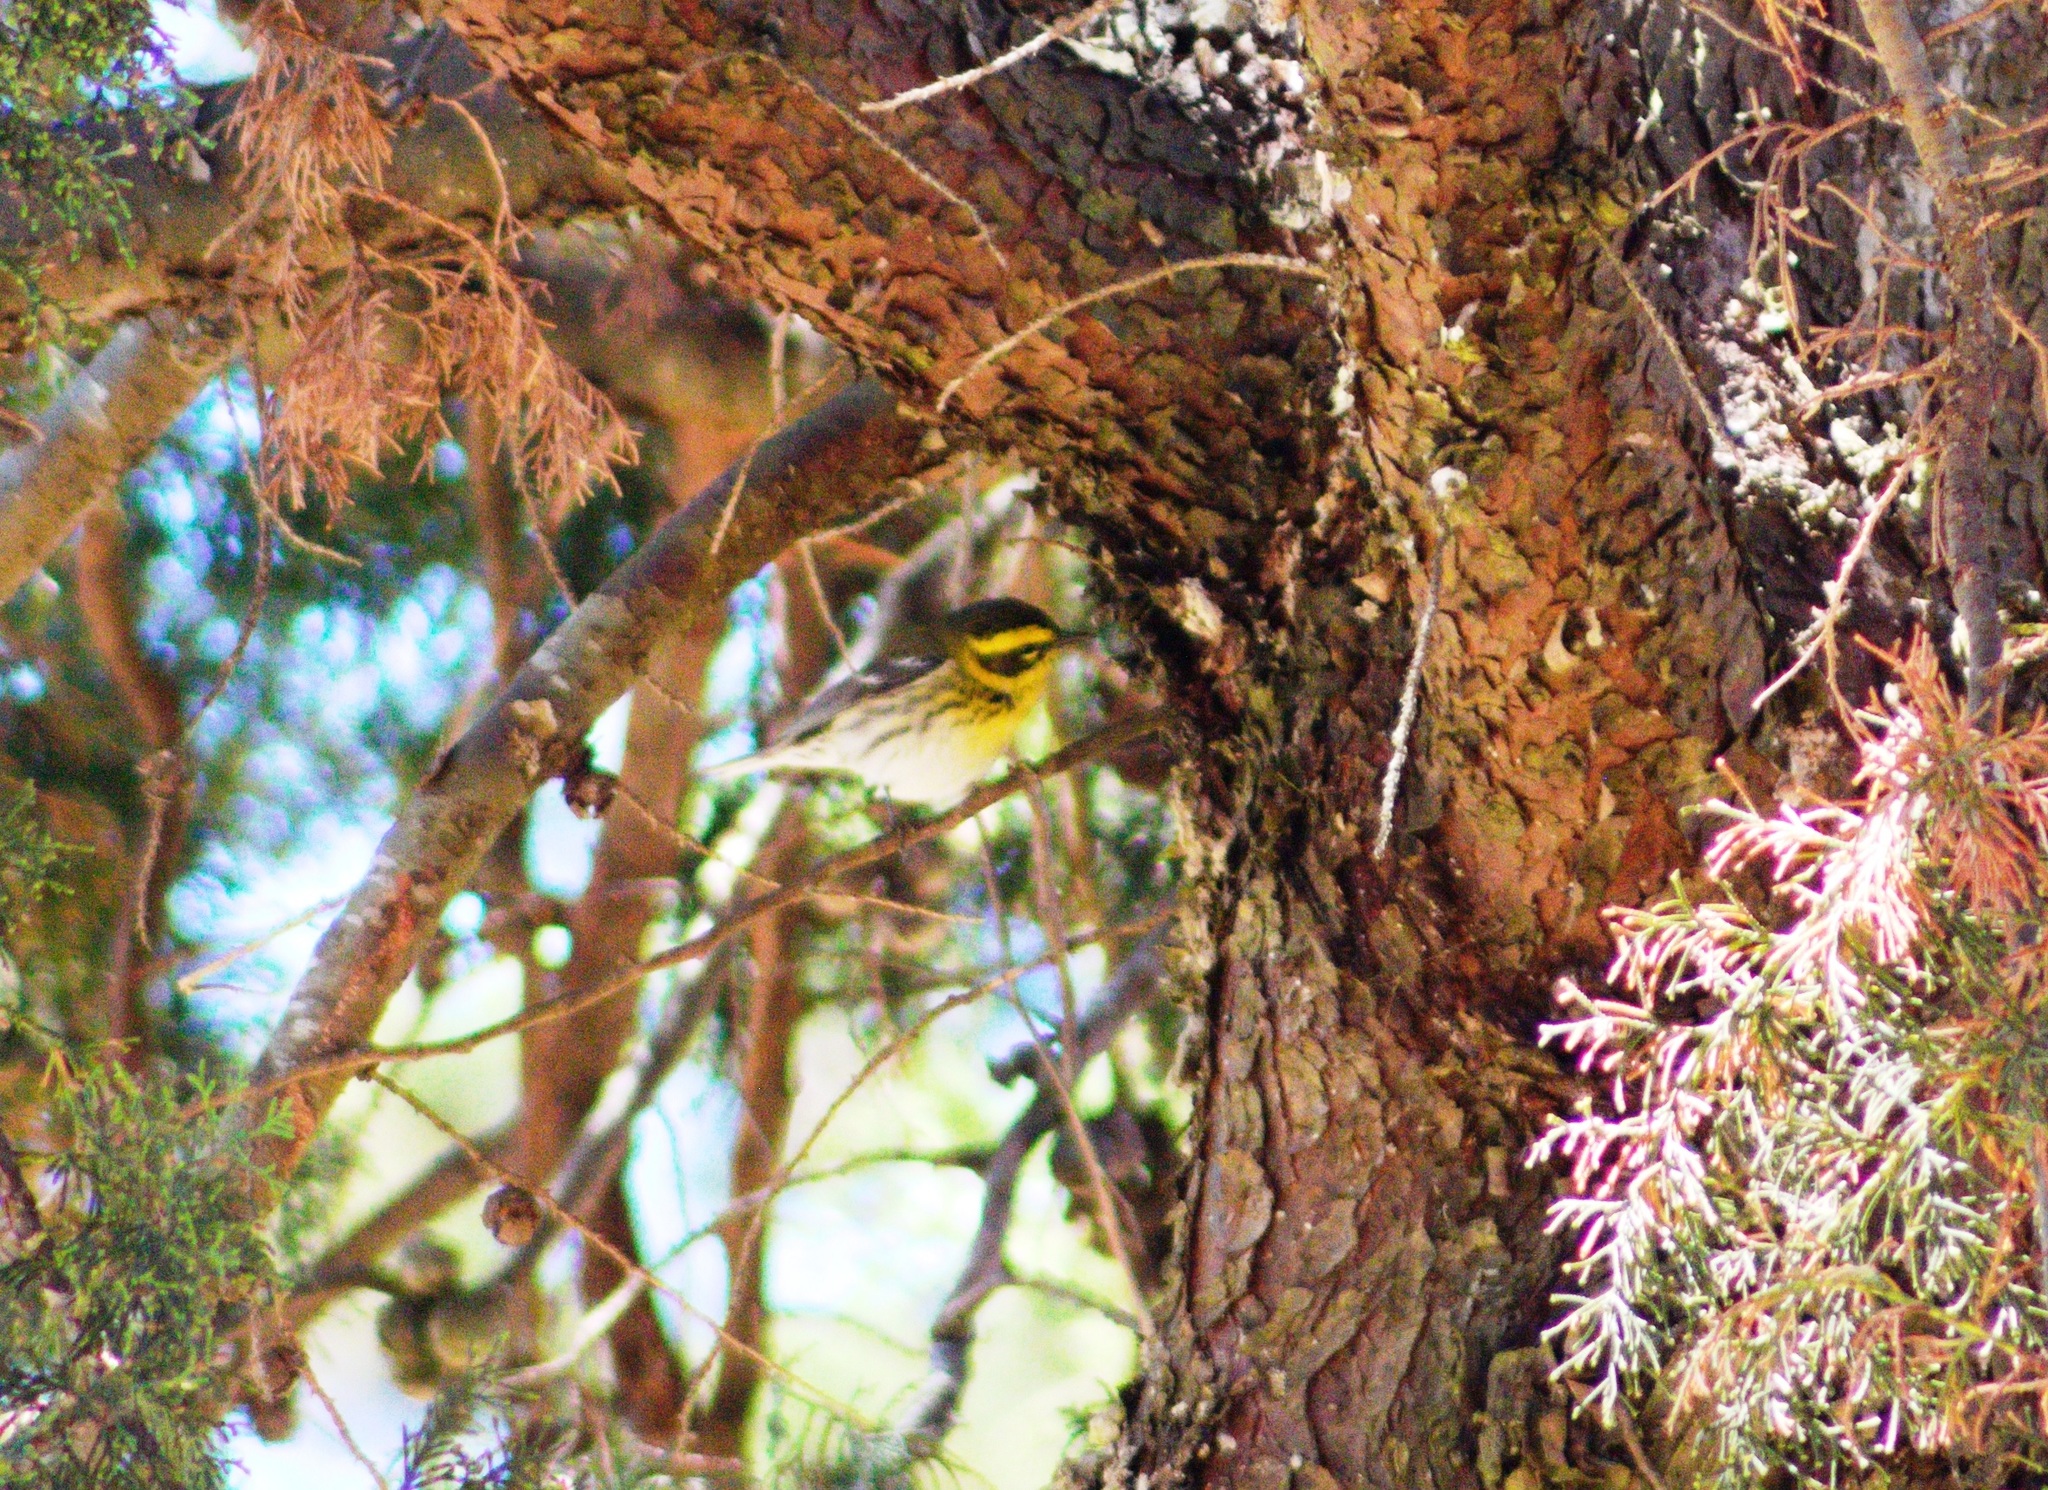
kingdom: Animalia
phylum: Chordata
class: Aves
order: Passeriformes
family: Parulidae
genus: Setophaga
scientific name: Setophaga townsendi
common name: Townsend's warbler
